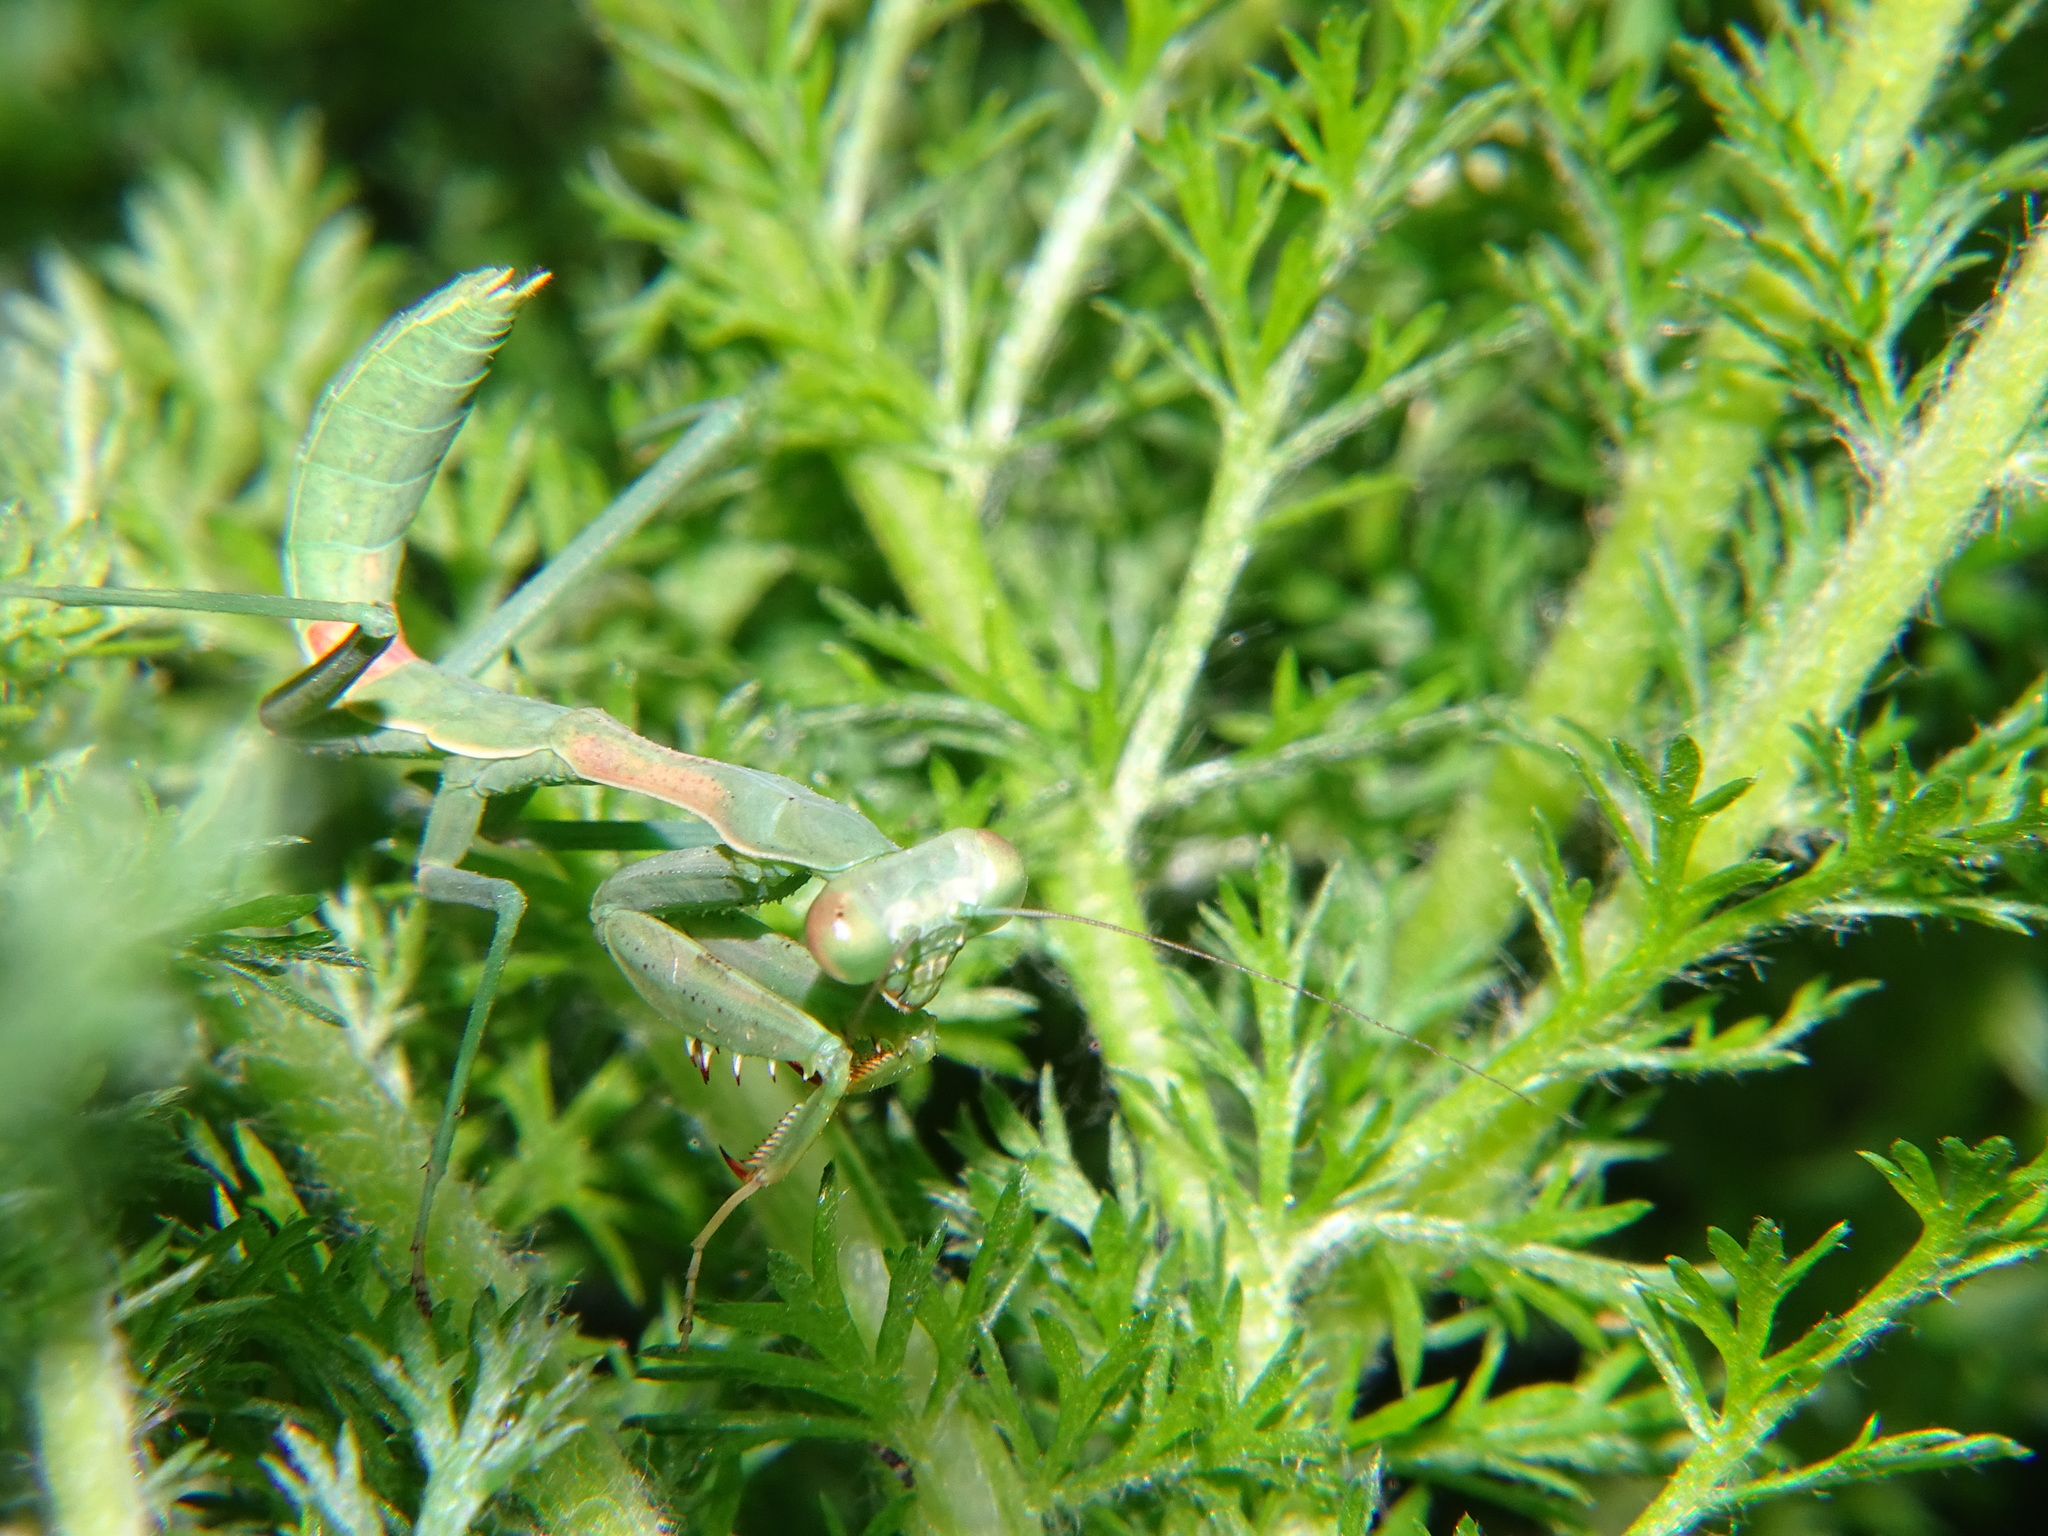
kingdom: Animalia
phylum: Arthropoda
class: Insecta
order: Mantodea
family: Mantidae
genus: Stagmomantis
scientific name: Stagmomantis limbata
